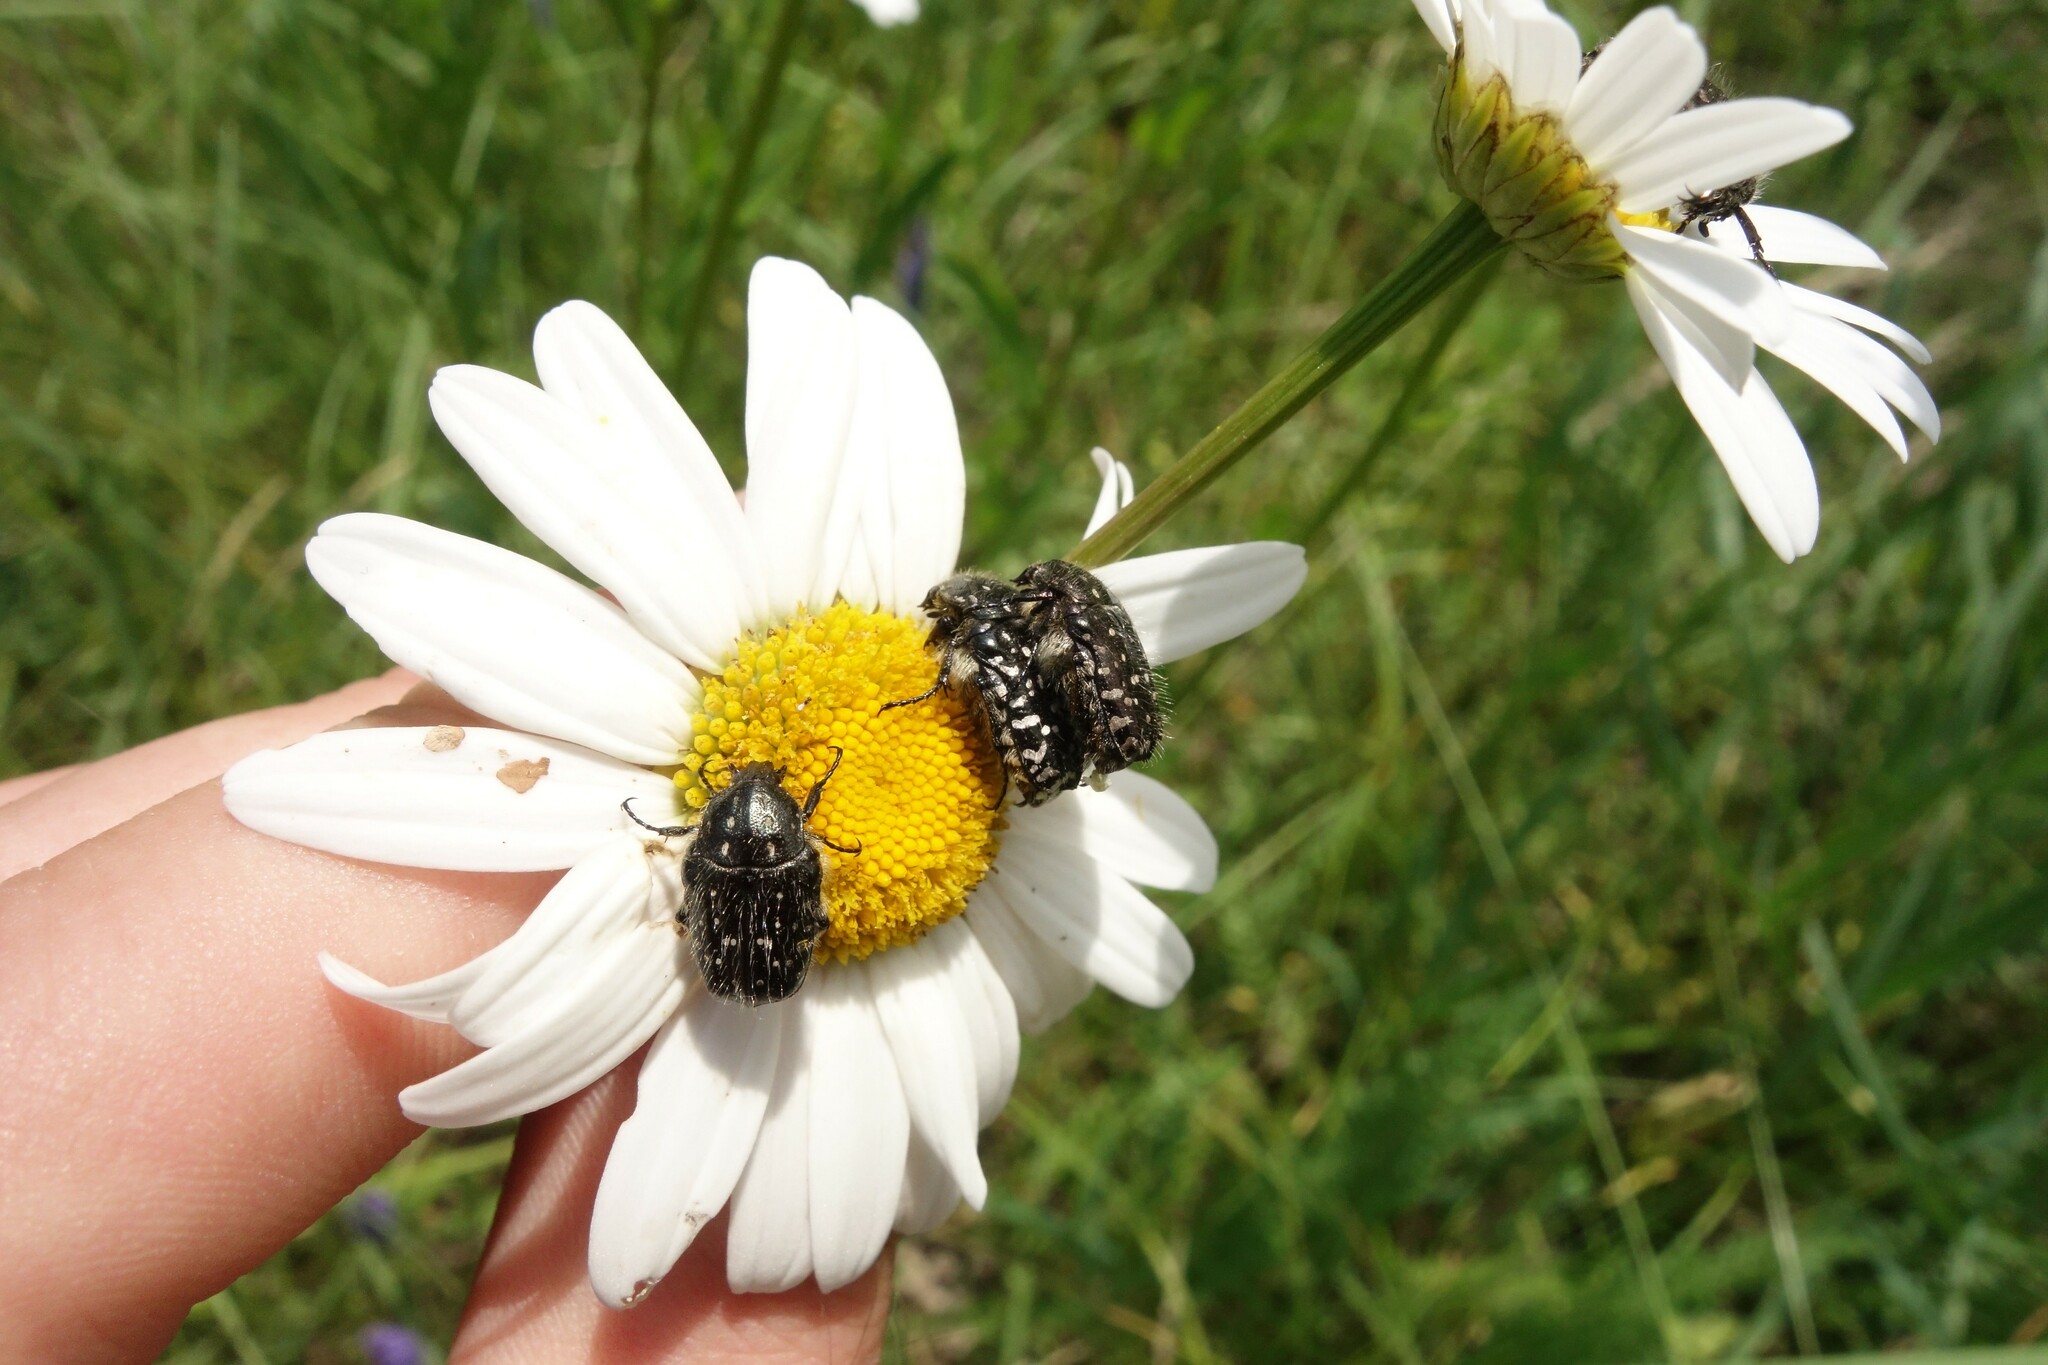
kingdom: Animalia
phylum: Arthropoda
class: Insecta
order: Coleoptera
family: Scarabaeidae
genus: Oxythyrea
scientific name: Oxythyrea funesta
